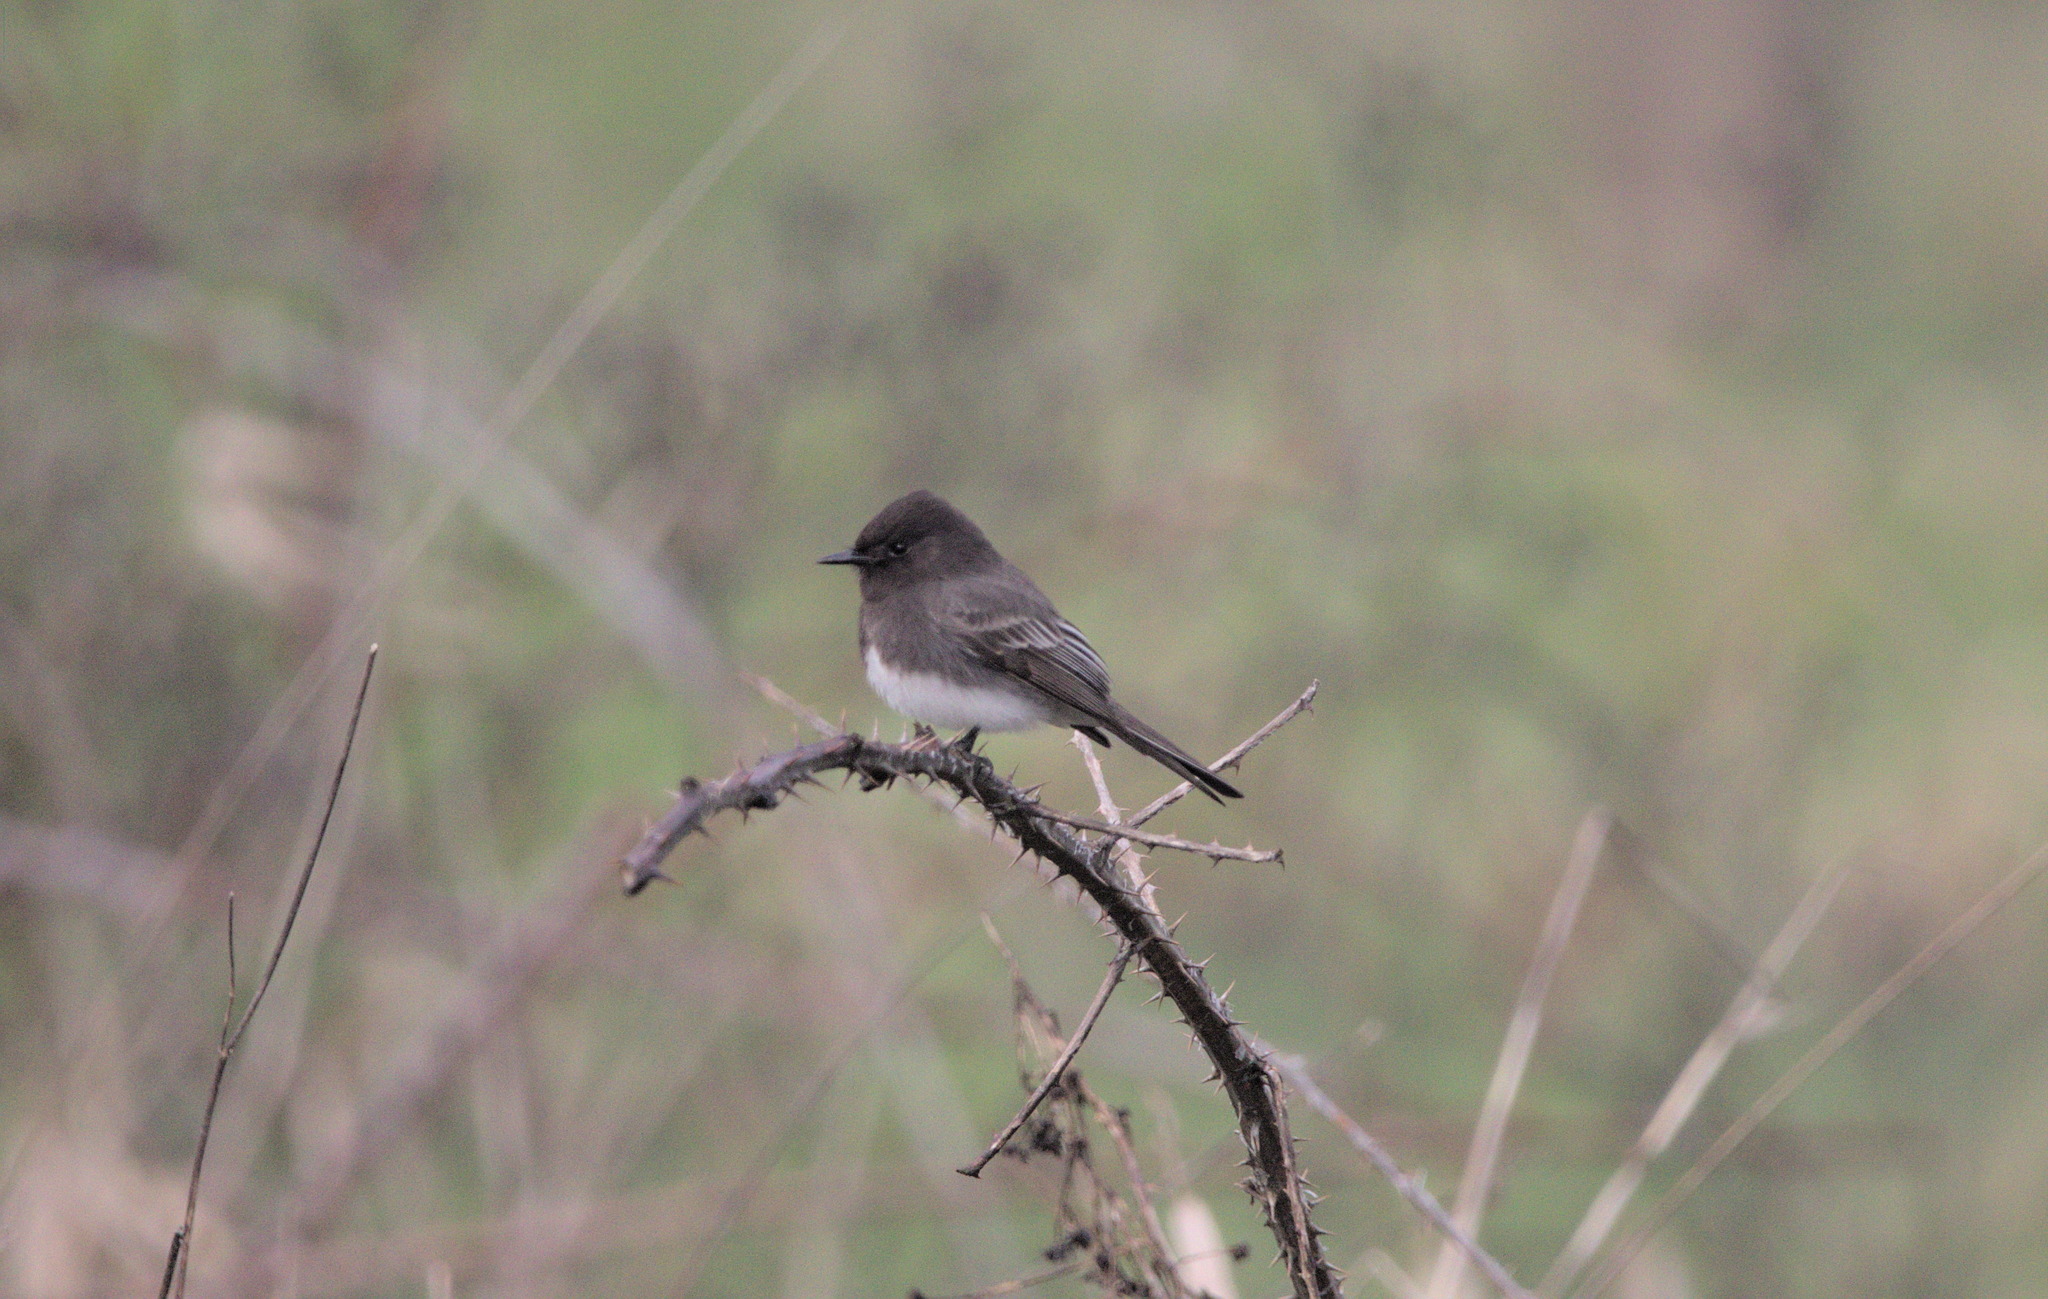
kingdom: Animalia
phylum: Chordata
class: Aves
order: Passeriformes
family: Tyrannidae
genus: Sayornis
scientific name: Sayornis nigricans
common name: Black phoebe
